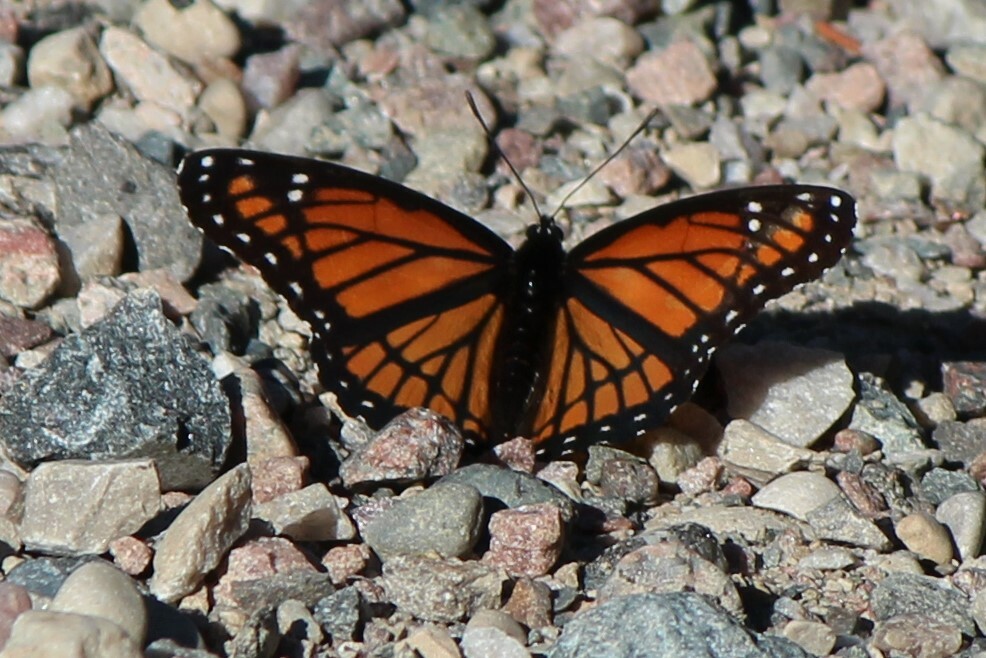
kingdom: Animalia
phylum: Arthropoda
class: Insecta
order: Lepidoptera
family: Nymphalidae
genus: Limenitis
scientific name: Limenitis archippus
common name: Viceroy
